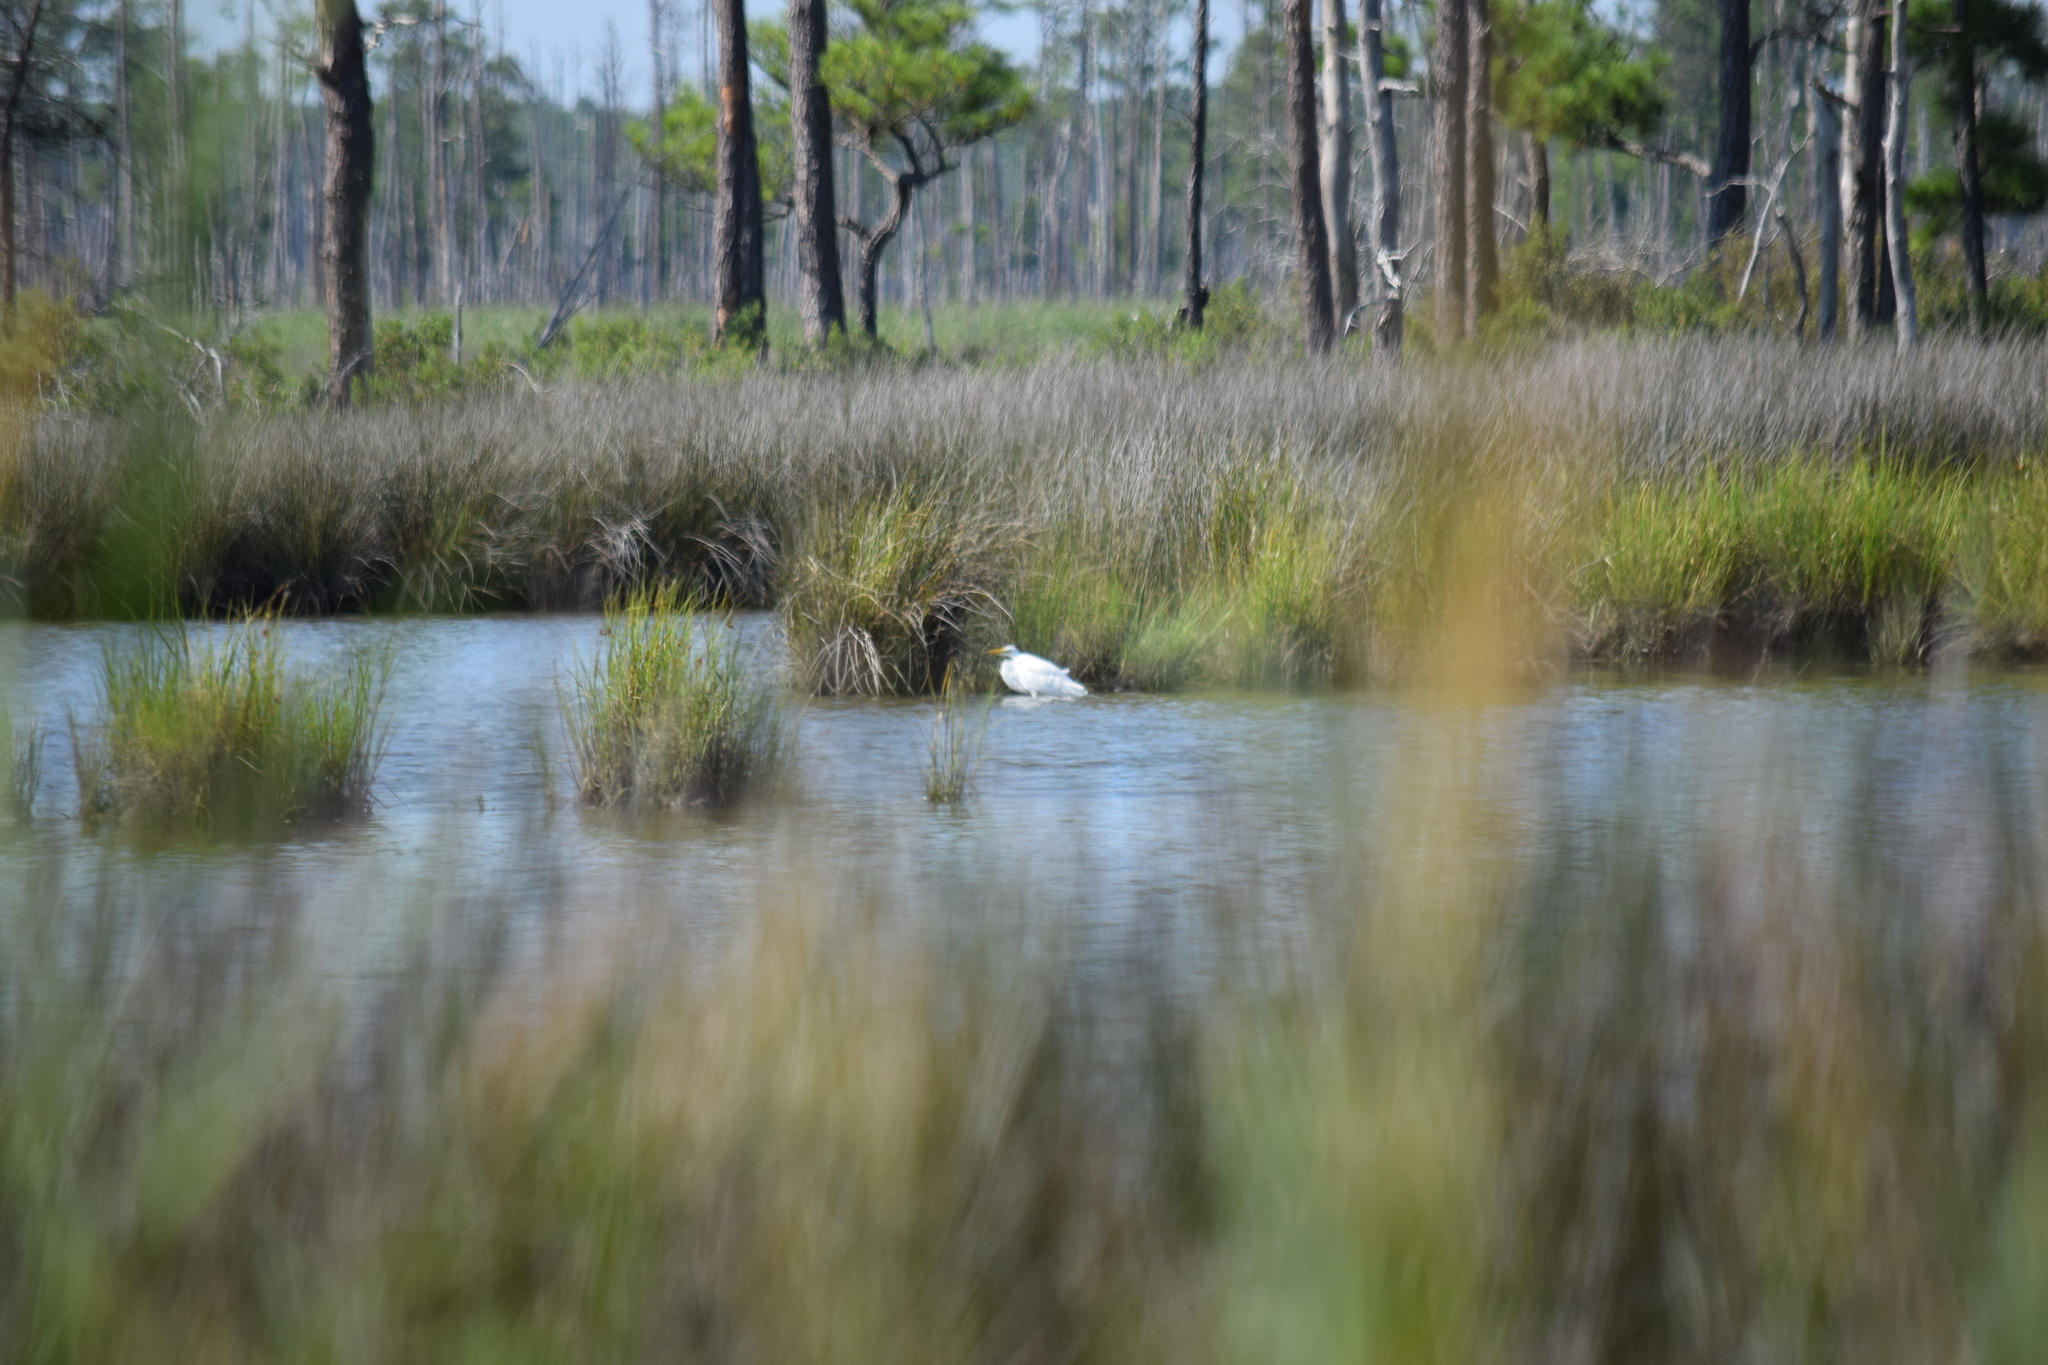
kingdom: Animalia
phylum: Chordata
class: Aves
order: Pelecaniformes
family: Ardeidae
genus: Ardea
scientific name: Ardea alba
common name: Great egret
